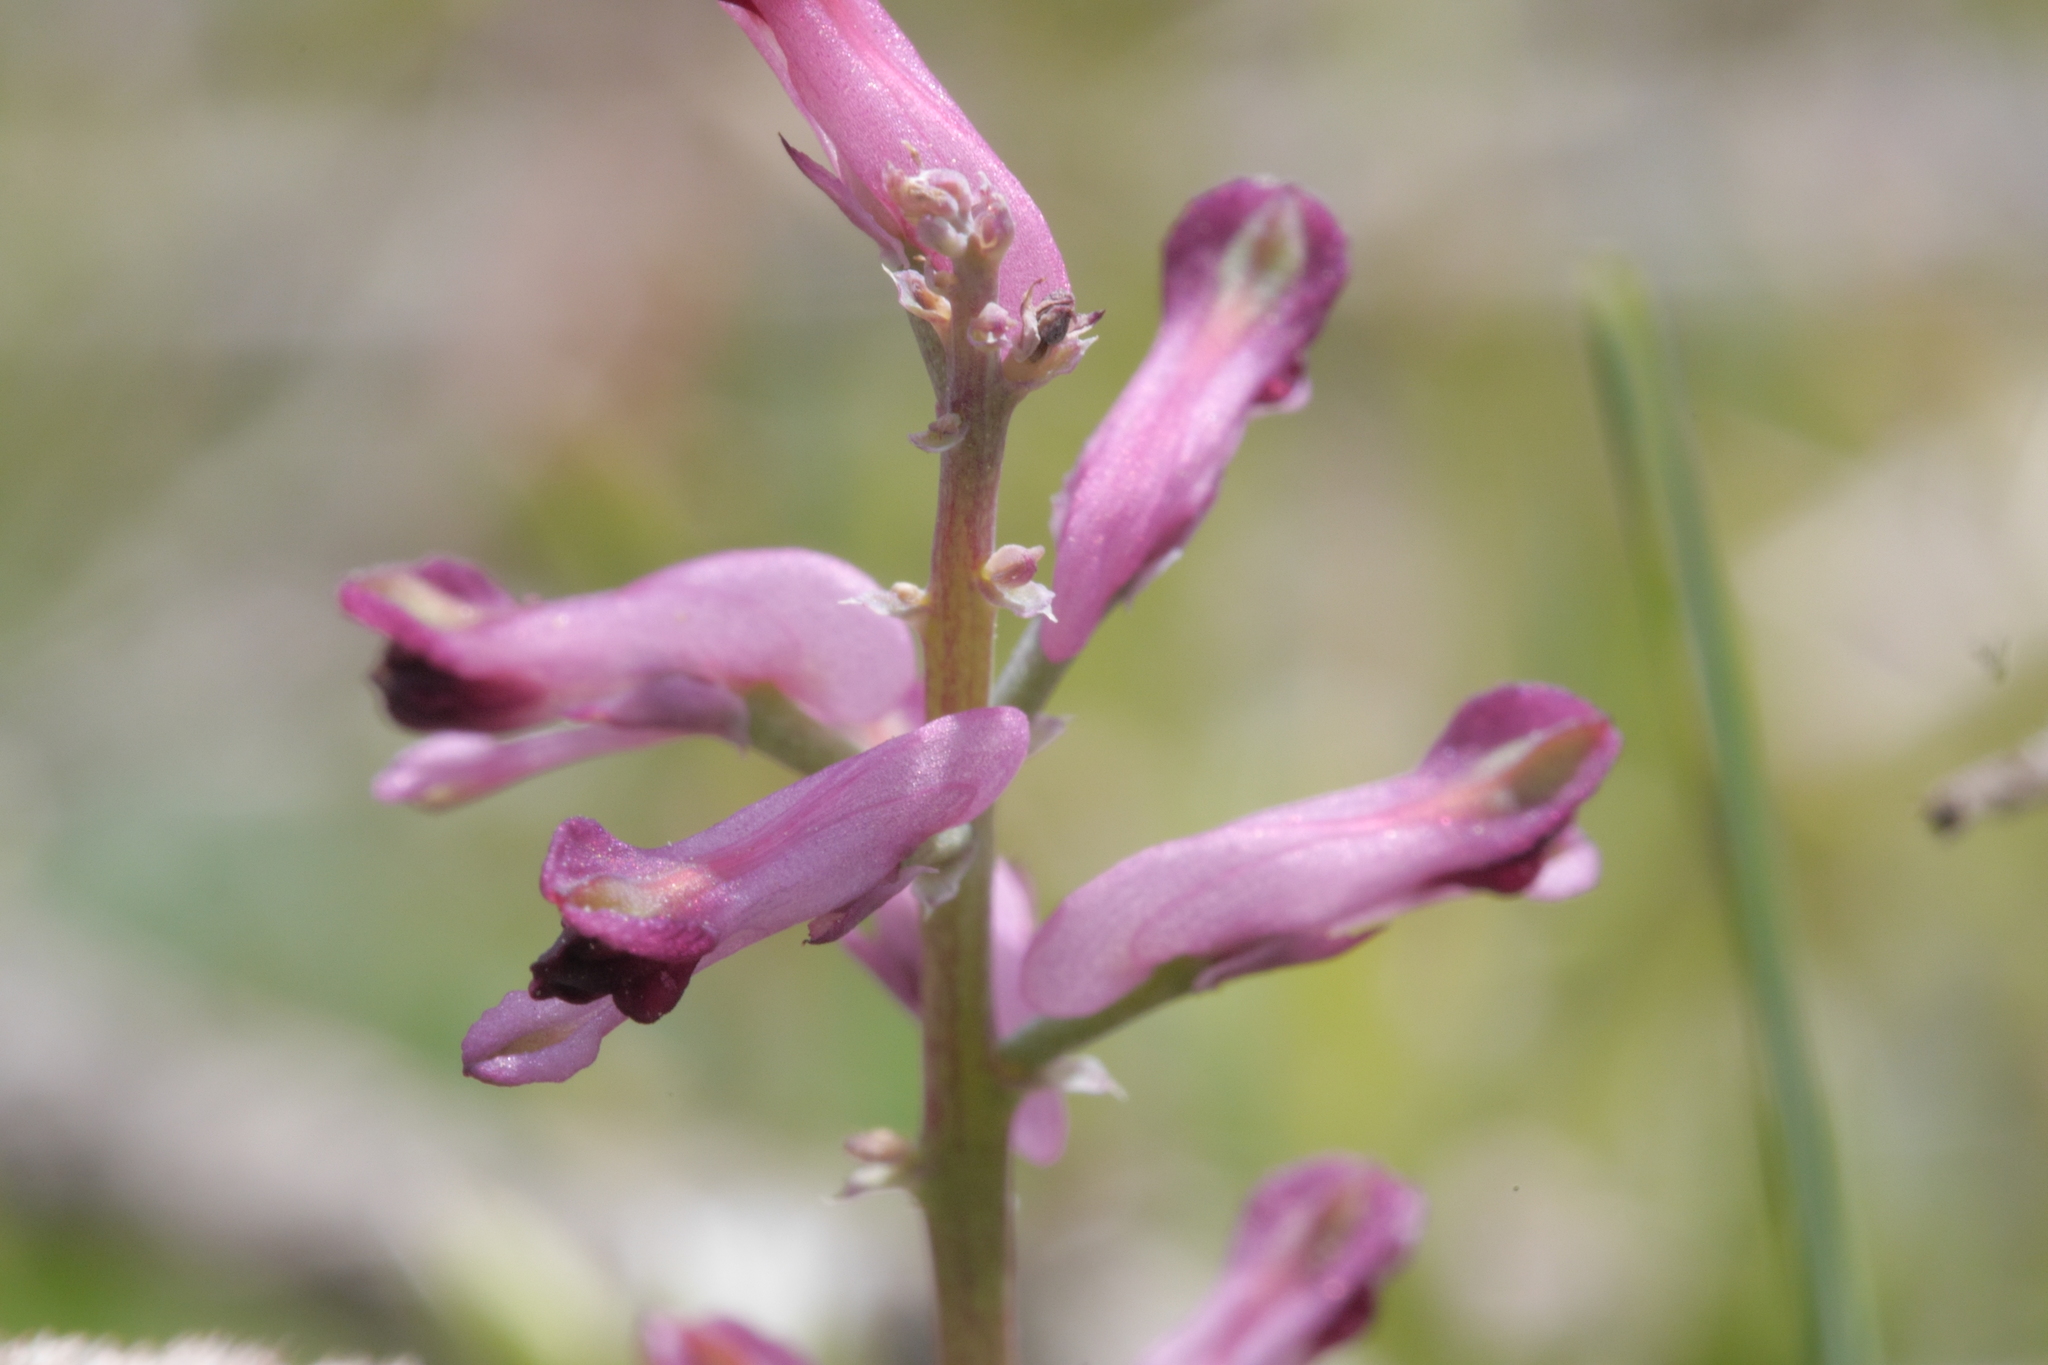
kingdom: Plantae
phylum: Tracheophyta
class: Magnoliopsida
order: Ranunculales
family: Papaveraceae
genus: Fumaria
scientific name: Fumaria officinalis
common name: Common fumitory
